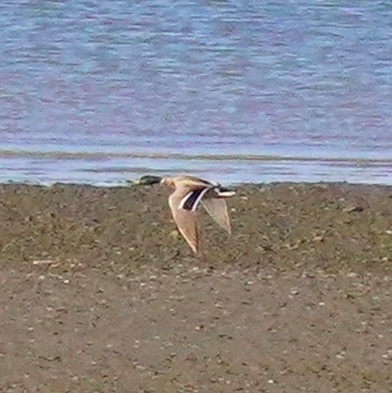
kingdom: Animalia
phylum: Chordata
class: Aves
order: Anseriformes
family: Anatidae
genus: Anas
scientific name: Anas platyrhynchos
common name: Mallard
